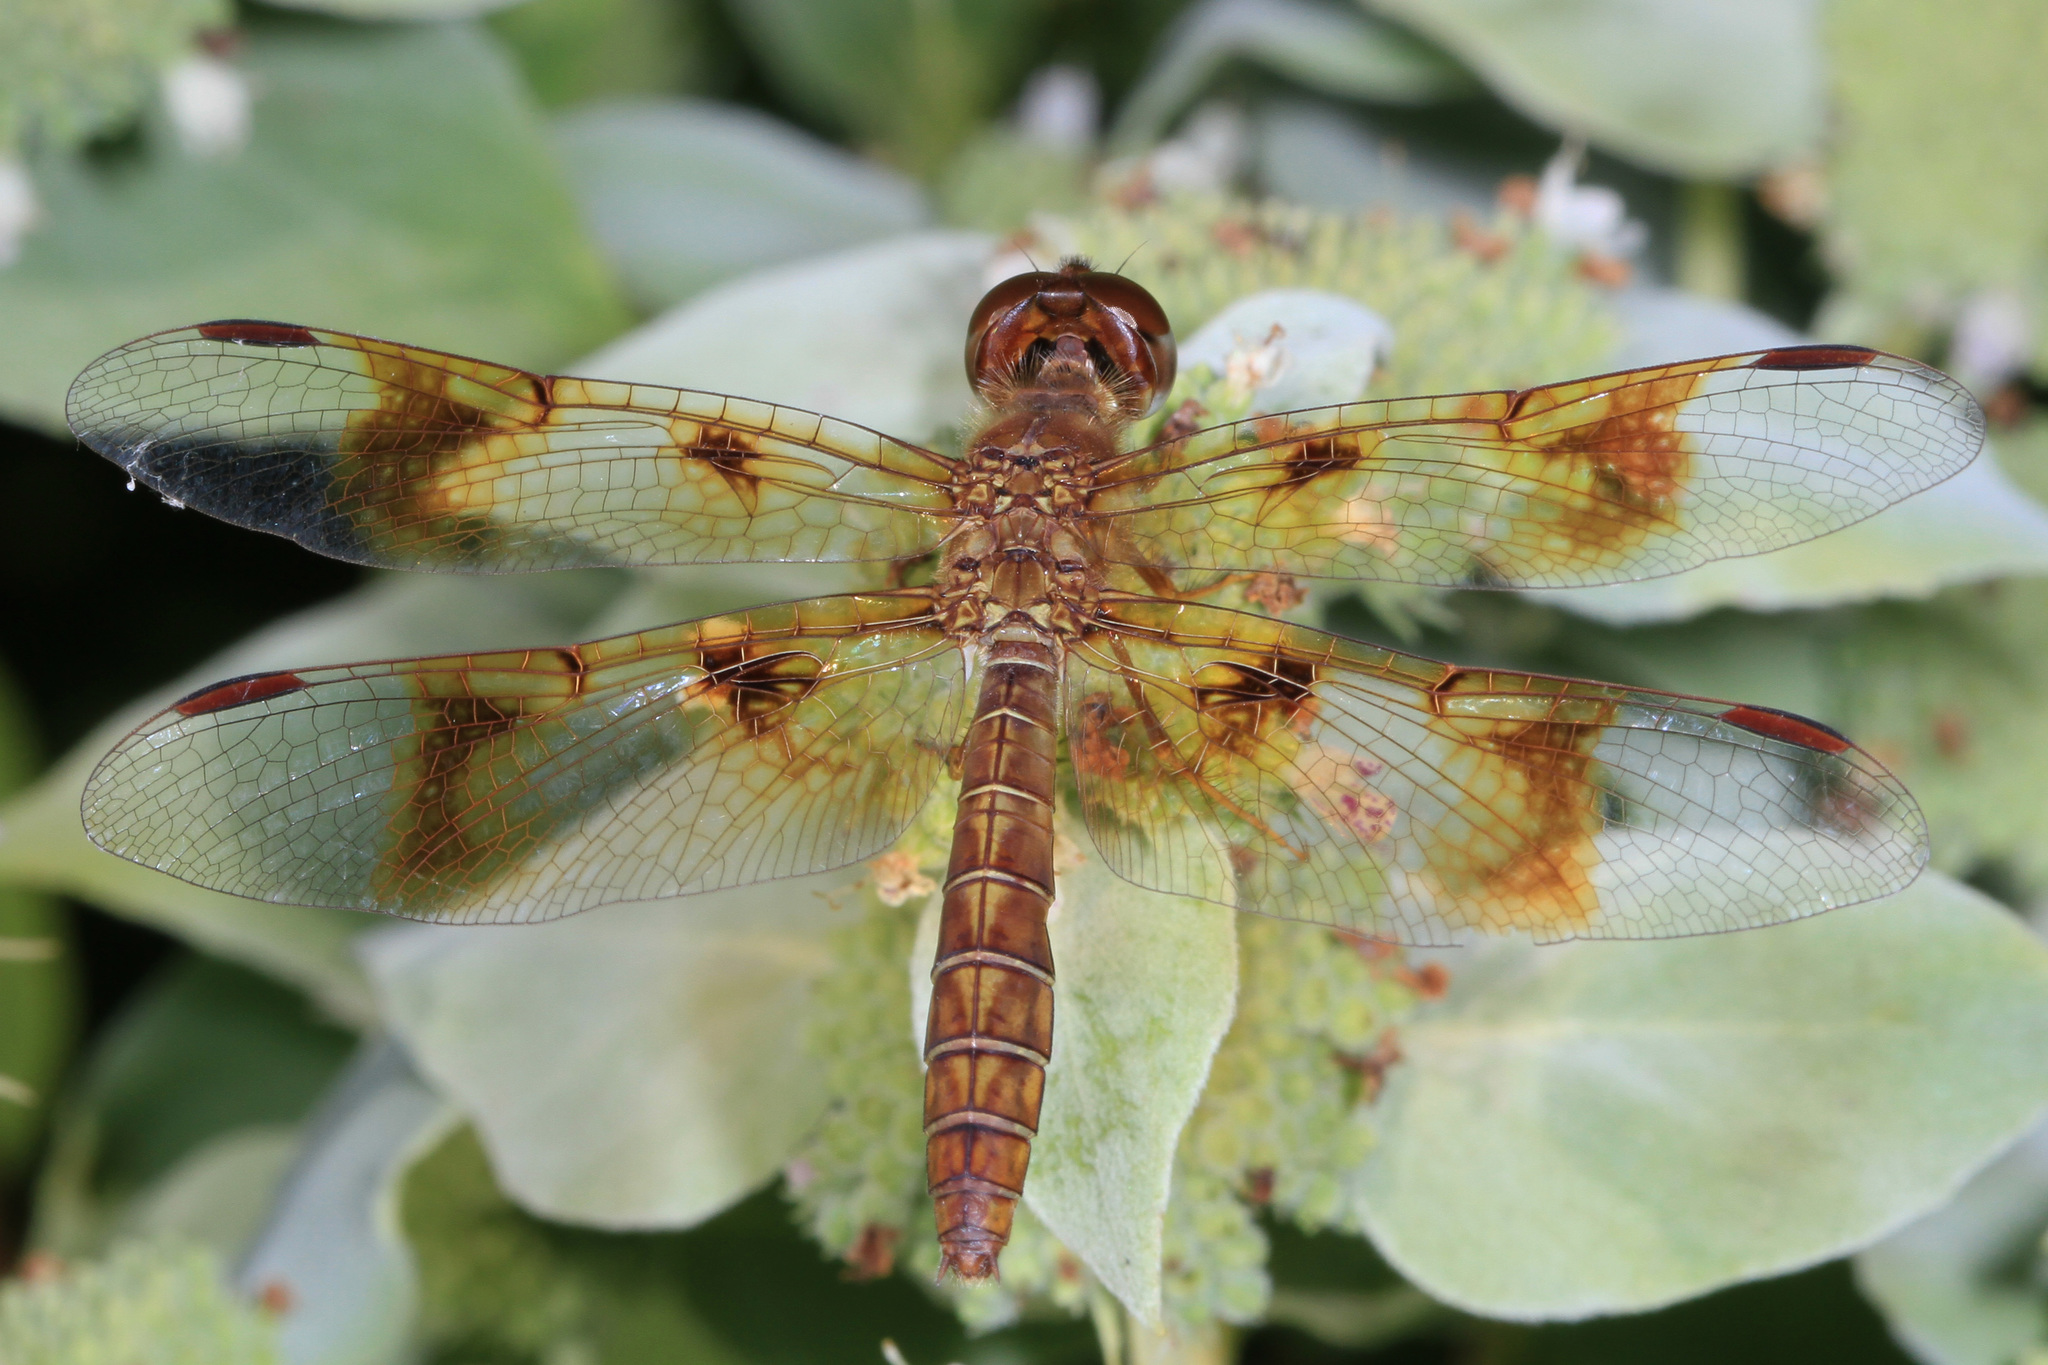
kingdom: Animalia
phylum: Arthropoda
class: Insecta
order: Odonata
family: Libellulidae
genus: Perithemis
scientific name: Perithemis tenera
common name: Eastern amberwing
